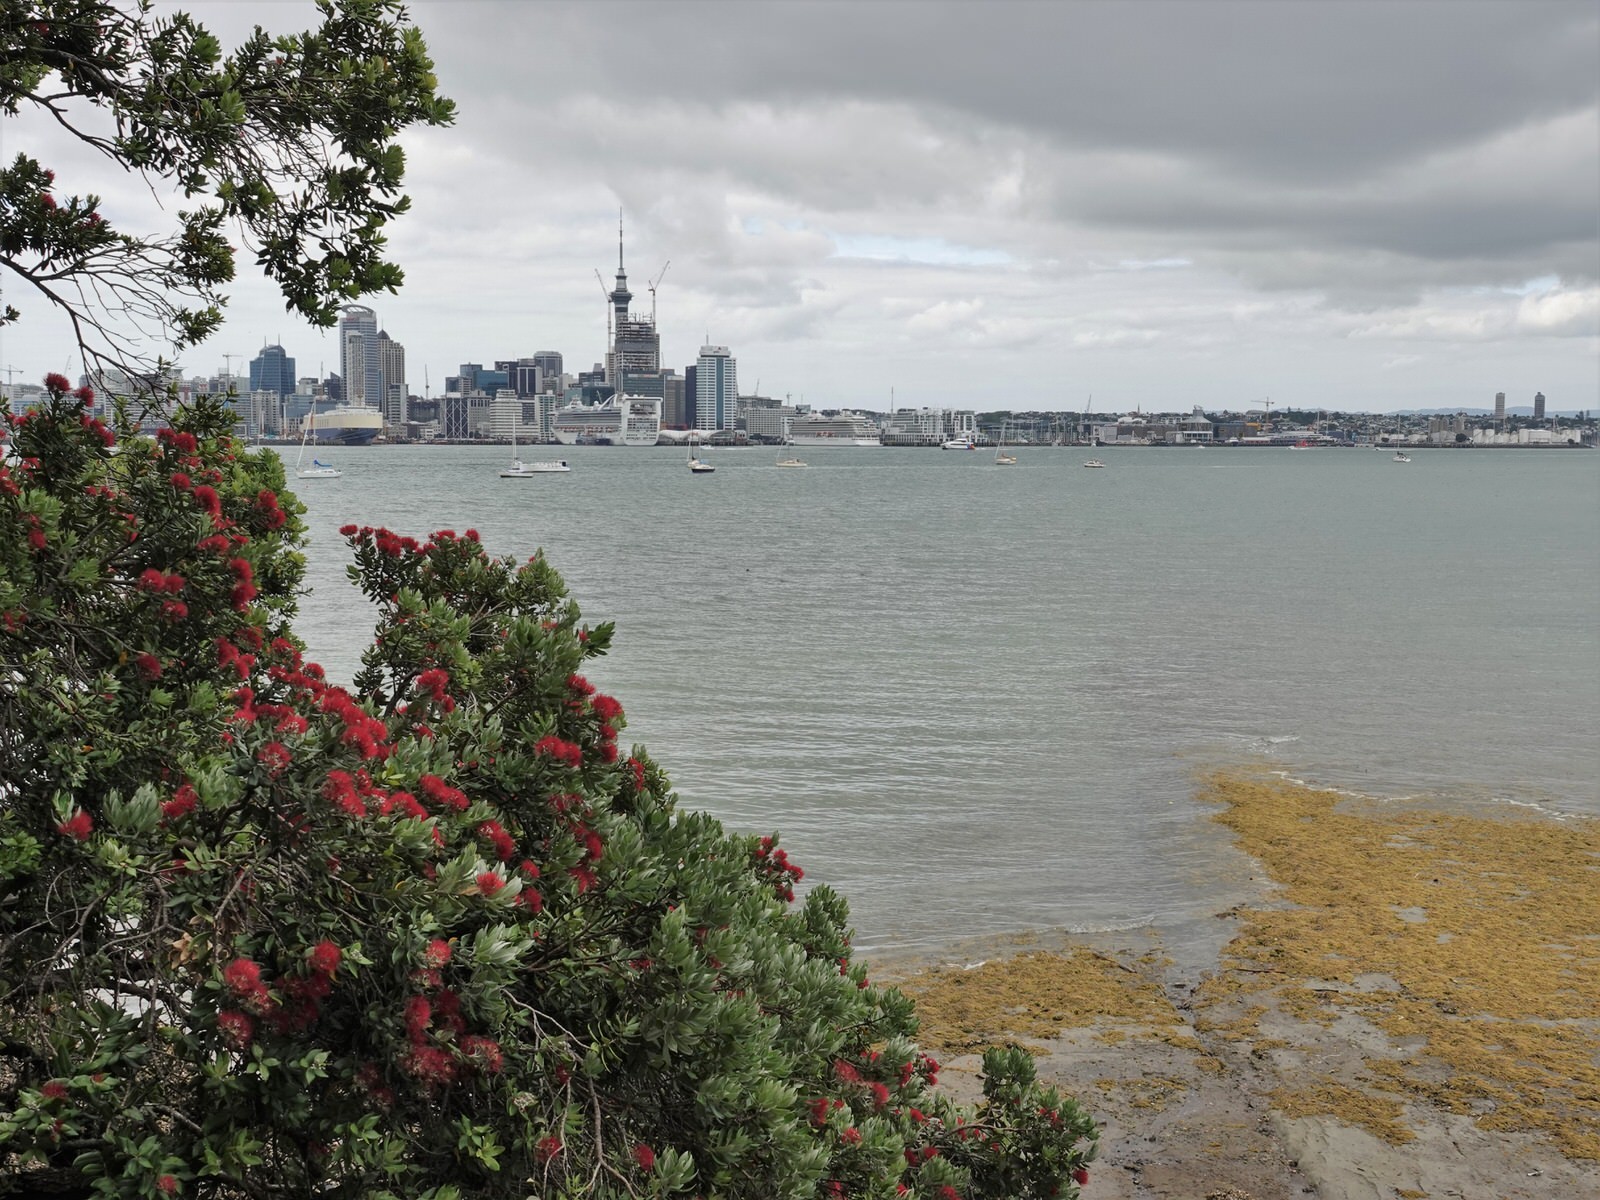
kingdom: Plantae
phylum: Tracheophyta
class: Magnoliopsida
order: Myrtales
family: Myrtaceae
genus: Metrosideros
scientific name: Metrosideros excelsa
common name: New zealand christmastree
